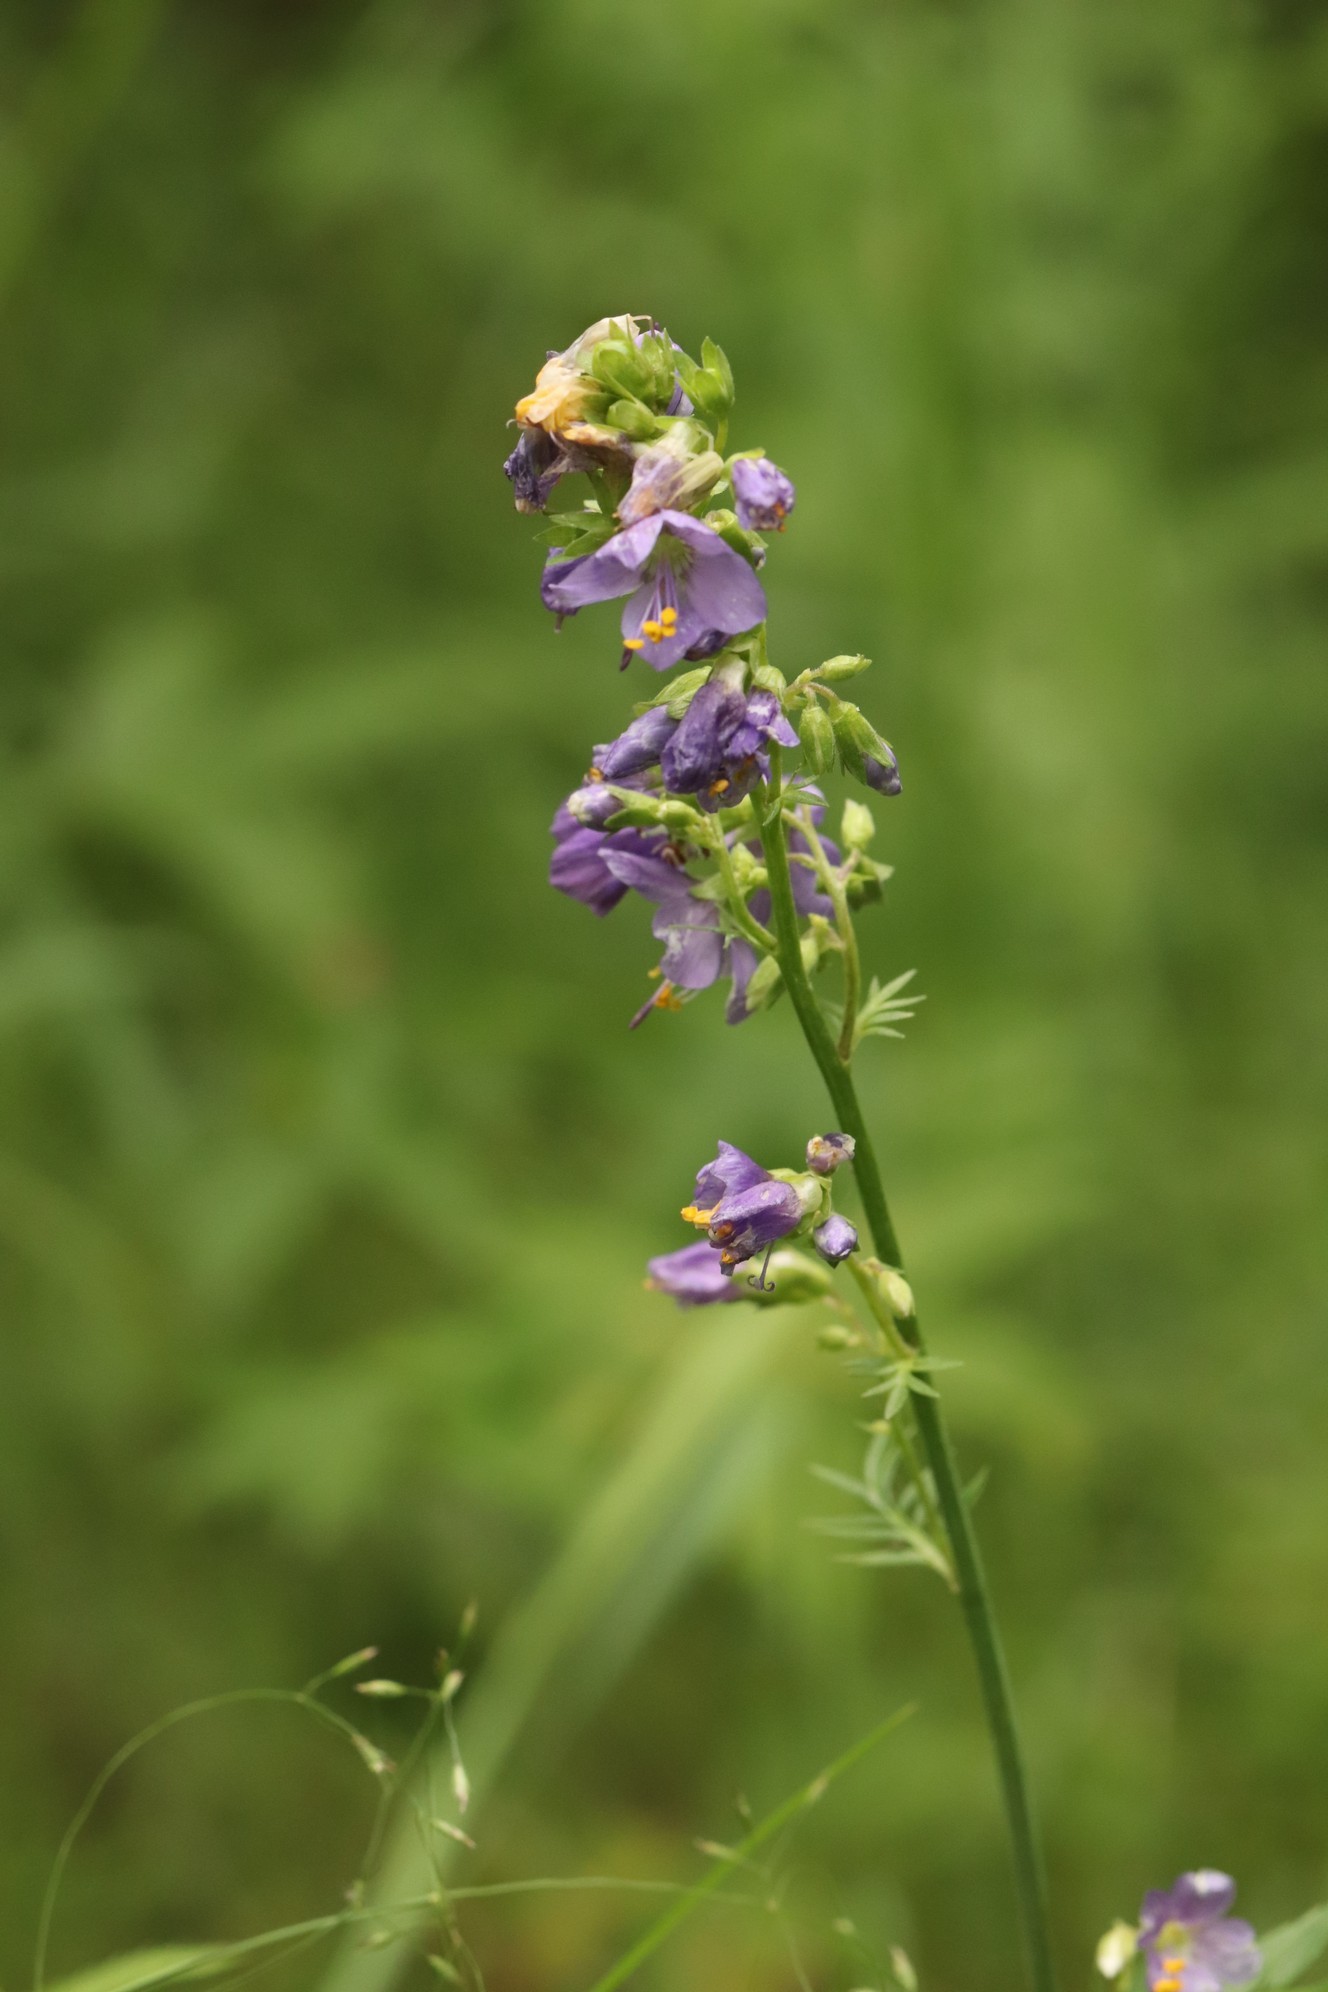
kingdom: Plantae
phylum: Tracheophyta
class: Magnoliopsida
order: Ericales
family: Polemoniaceae
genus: Polemonium
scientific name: Polemonium caeruleum
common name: Jacob's-ladder
